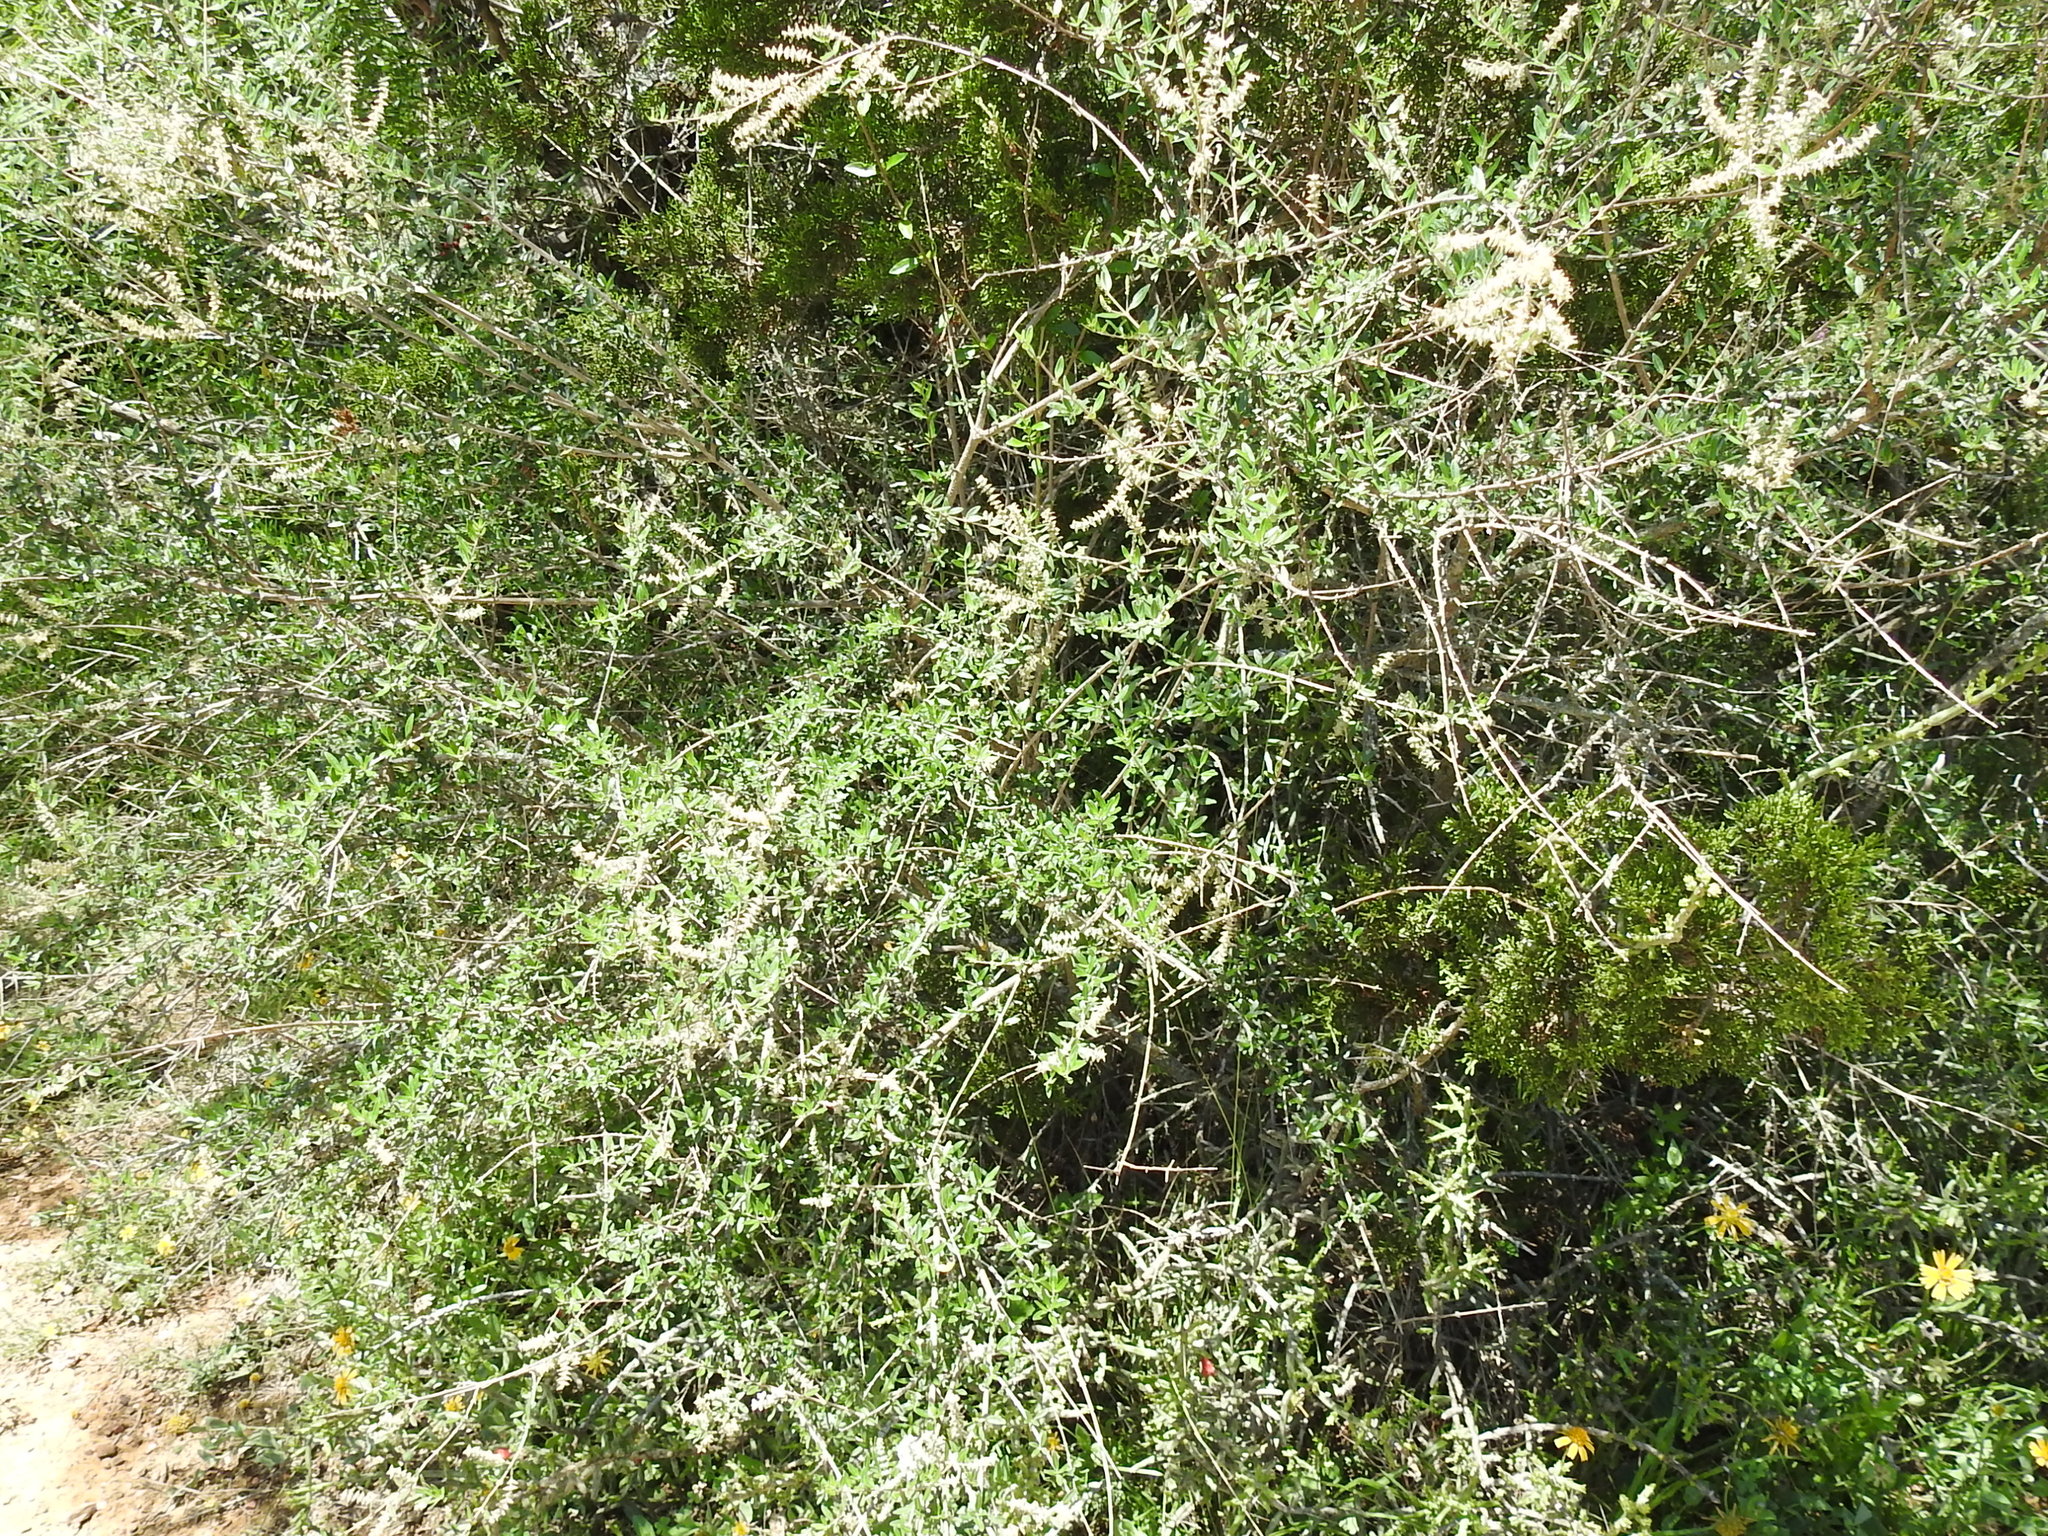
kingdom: Plantae
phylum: Tracheophyta
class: Magnoliopsida
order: Lamiales
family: Verbenaceae
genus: Aloysia
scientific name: Aloysia gratissima
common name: Common bee-brush
